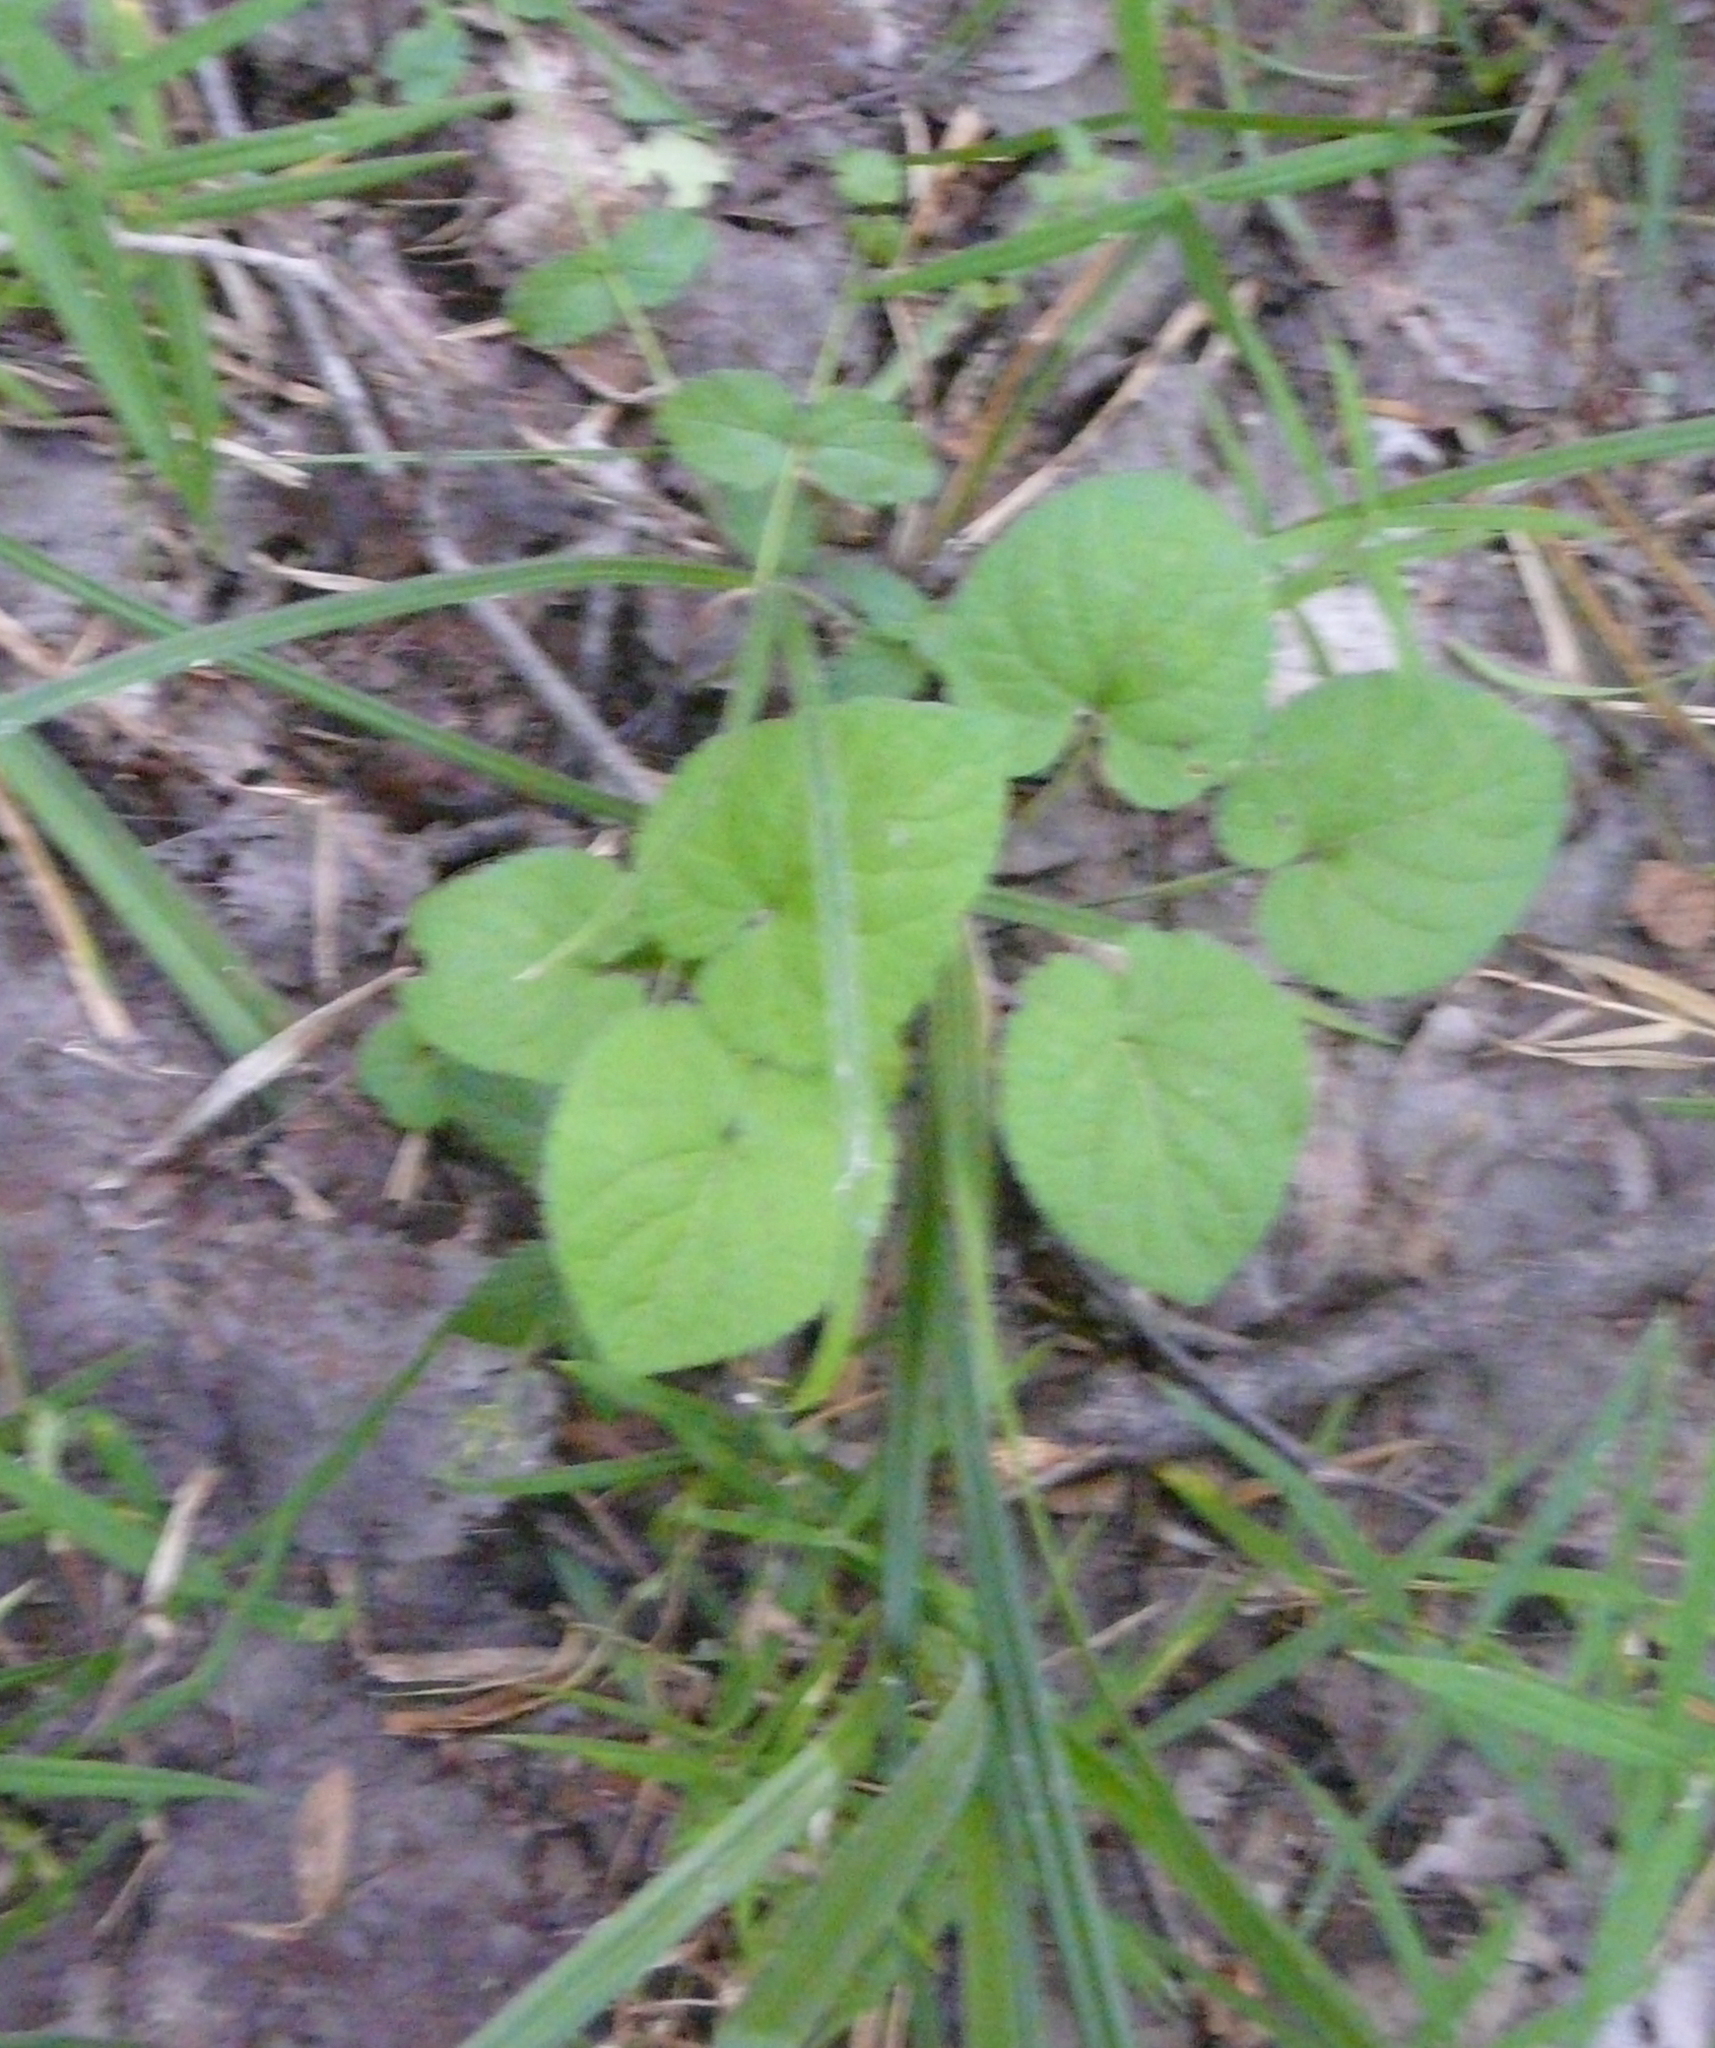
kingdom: Plantae
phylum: Tracheophyta
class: Magnoliopsida
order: Malpighiales
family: Violaceae
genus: Viola
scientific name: Viola collina
